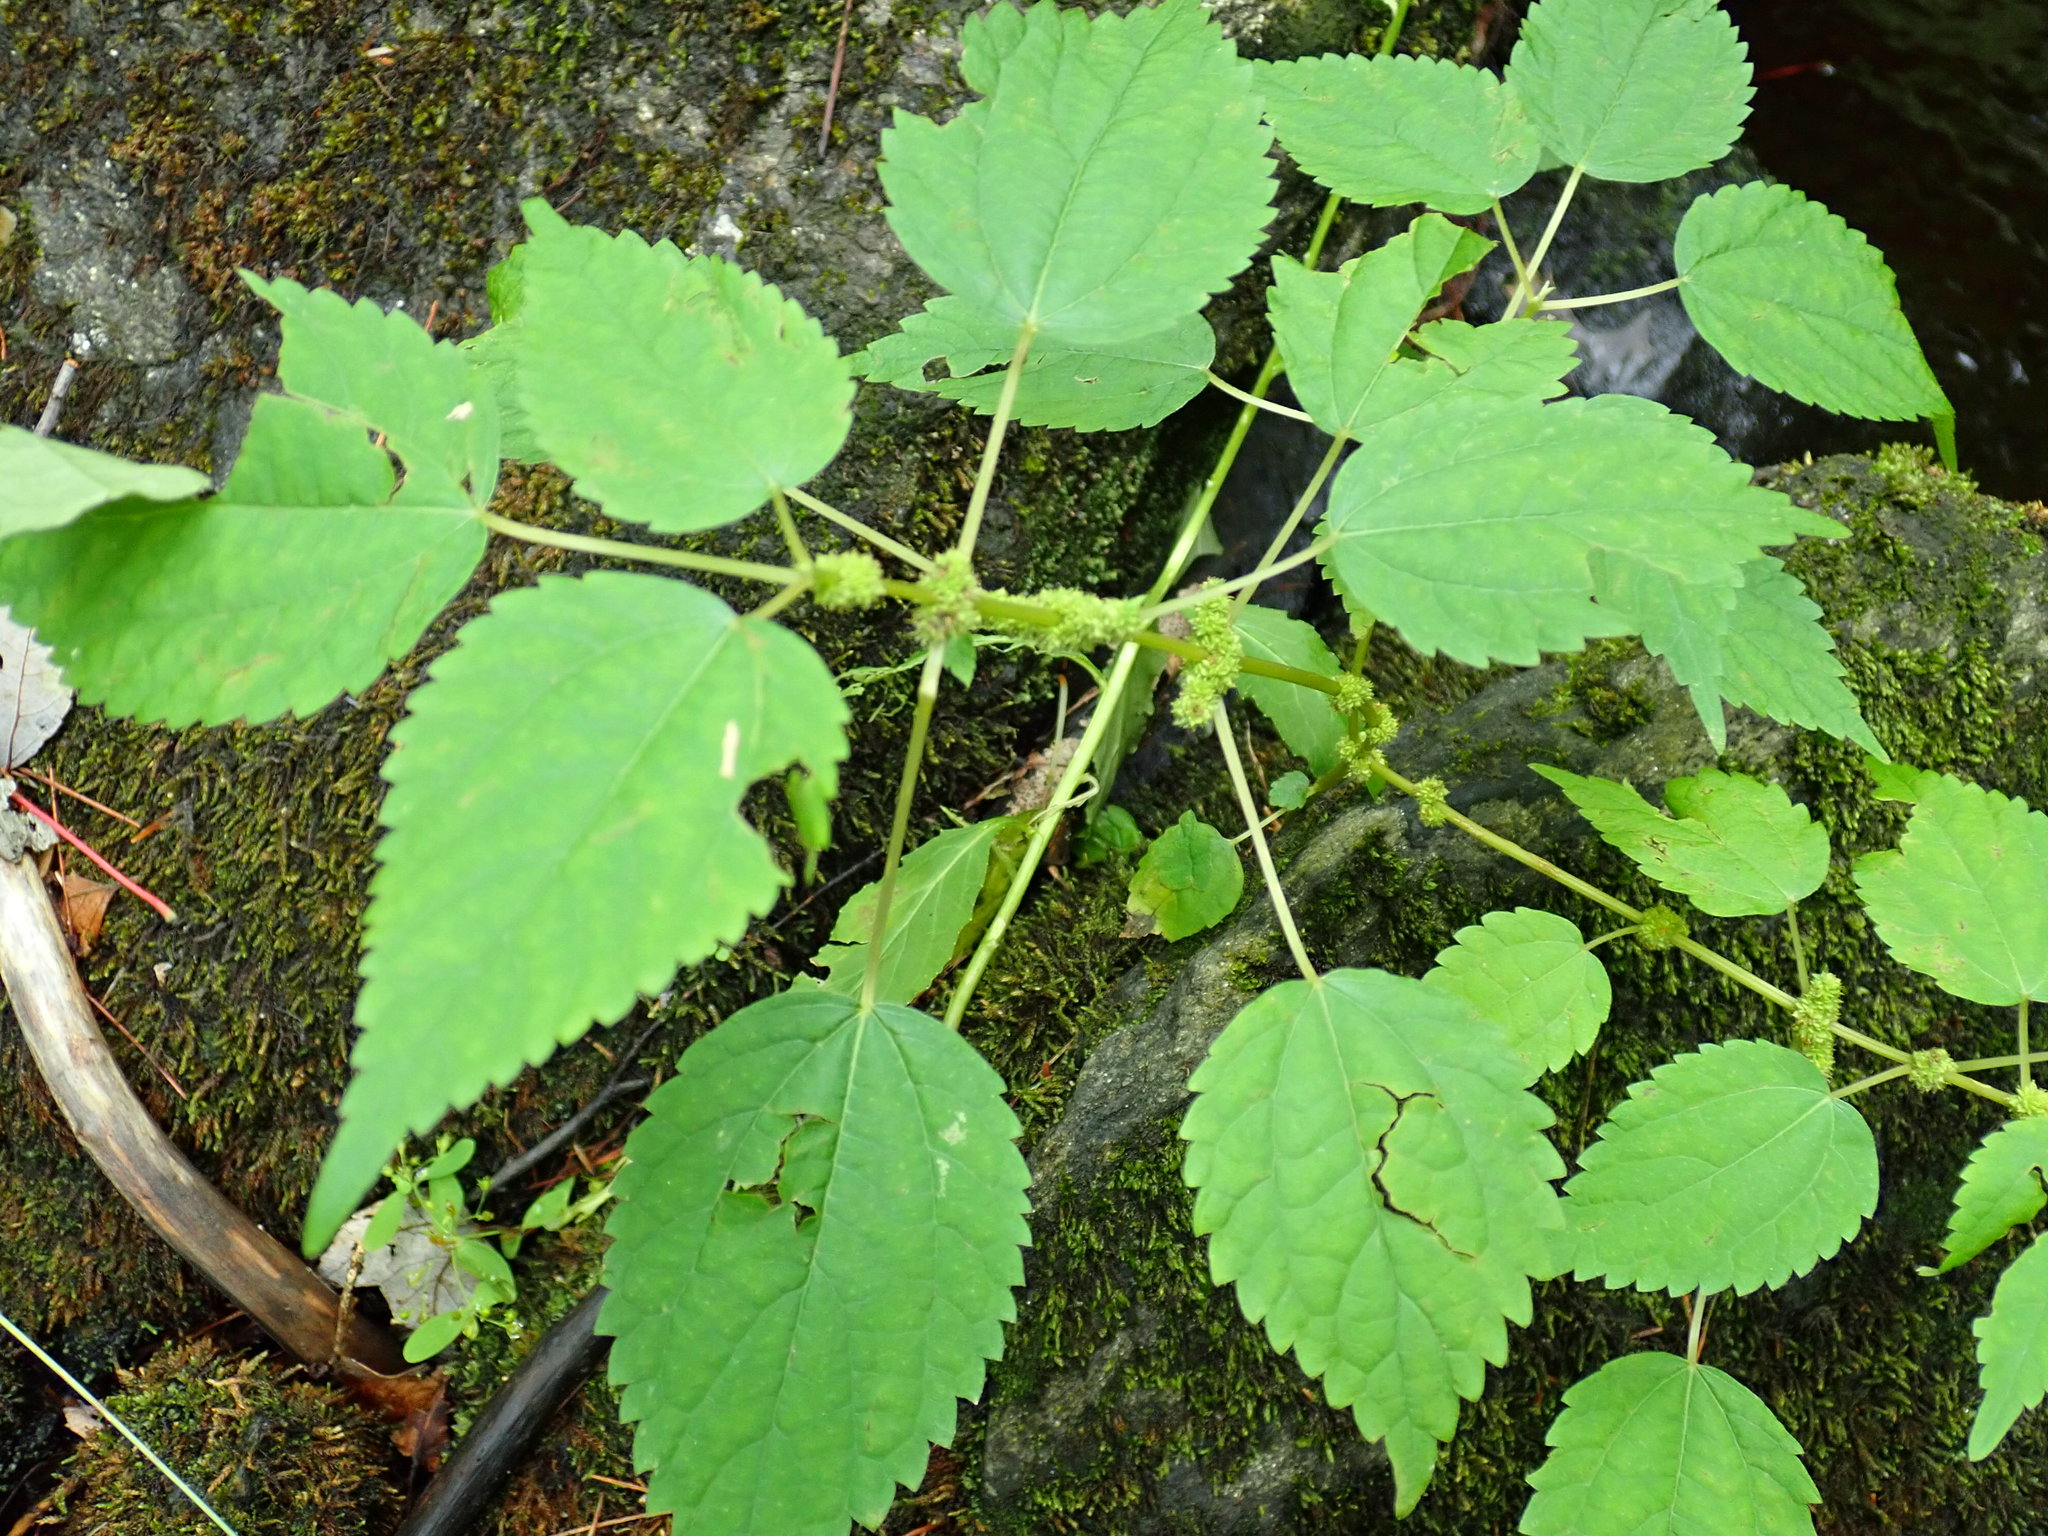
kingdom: Plantae
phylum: Tracheophyta
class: Magnoliopsida
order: Rosales
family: Urticaceae
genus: Boehmeria
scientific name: Boehmeria cylindrica
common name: Bog-hemp
